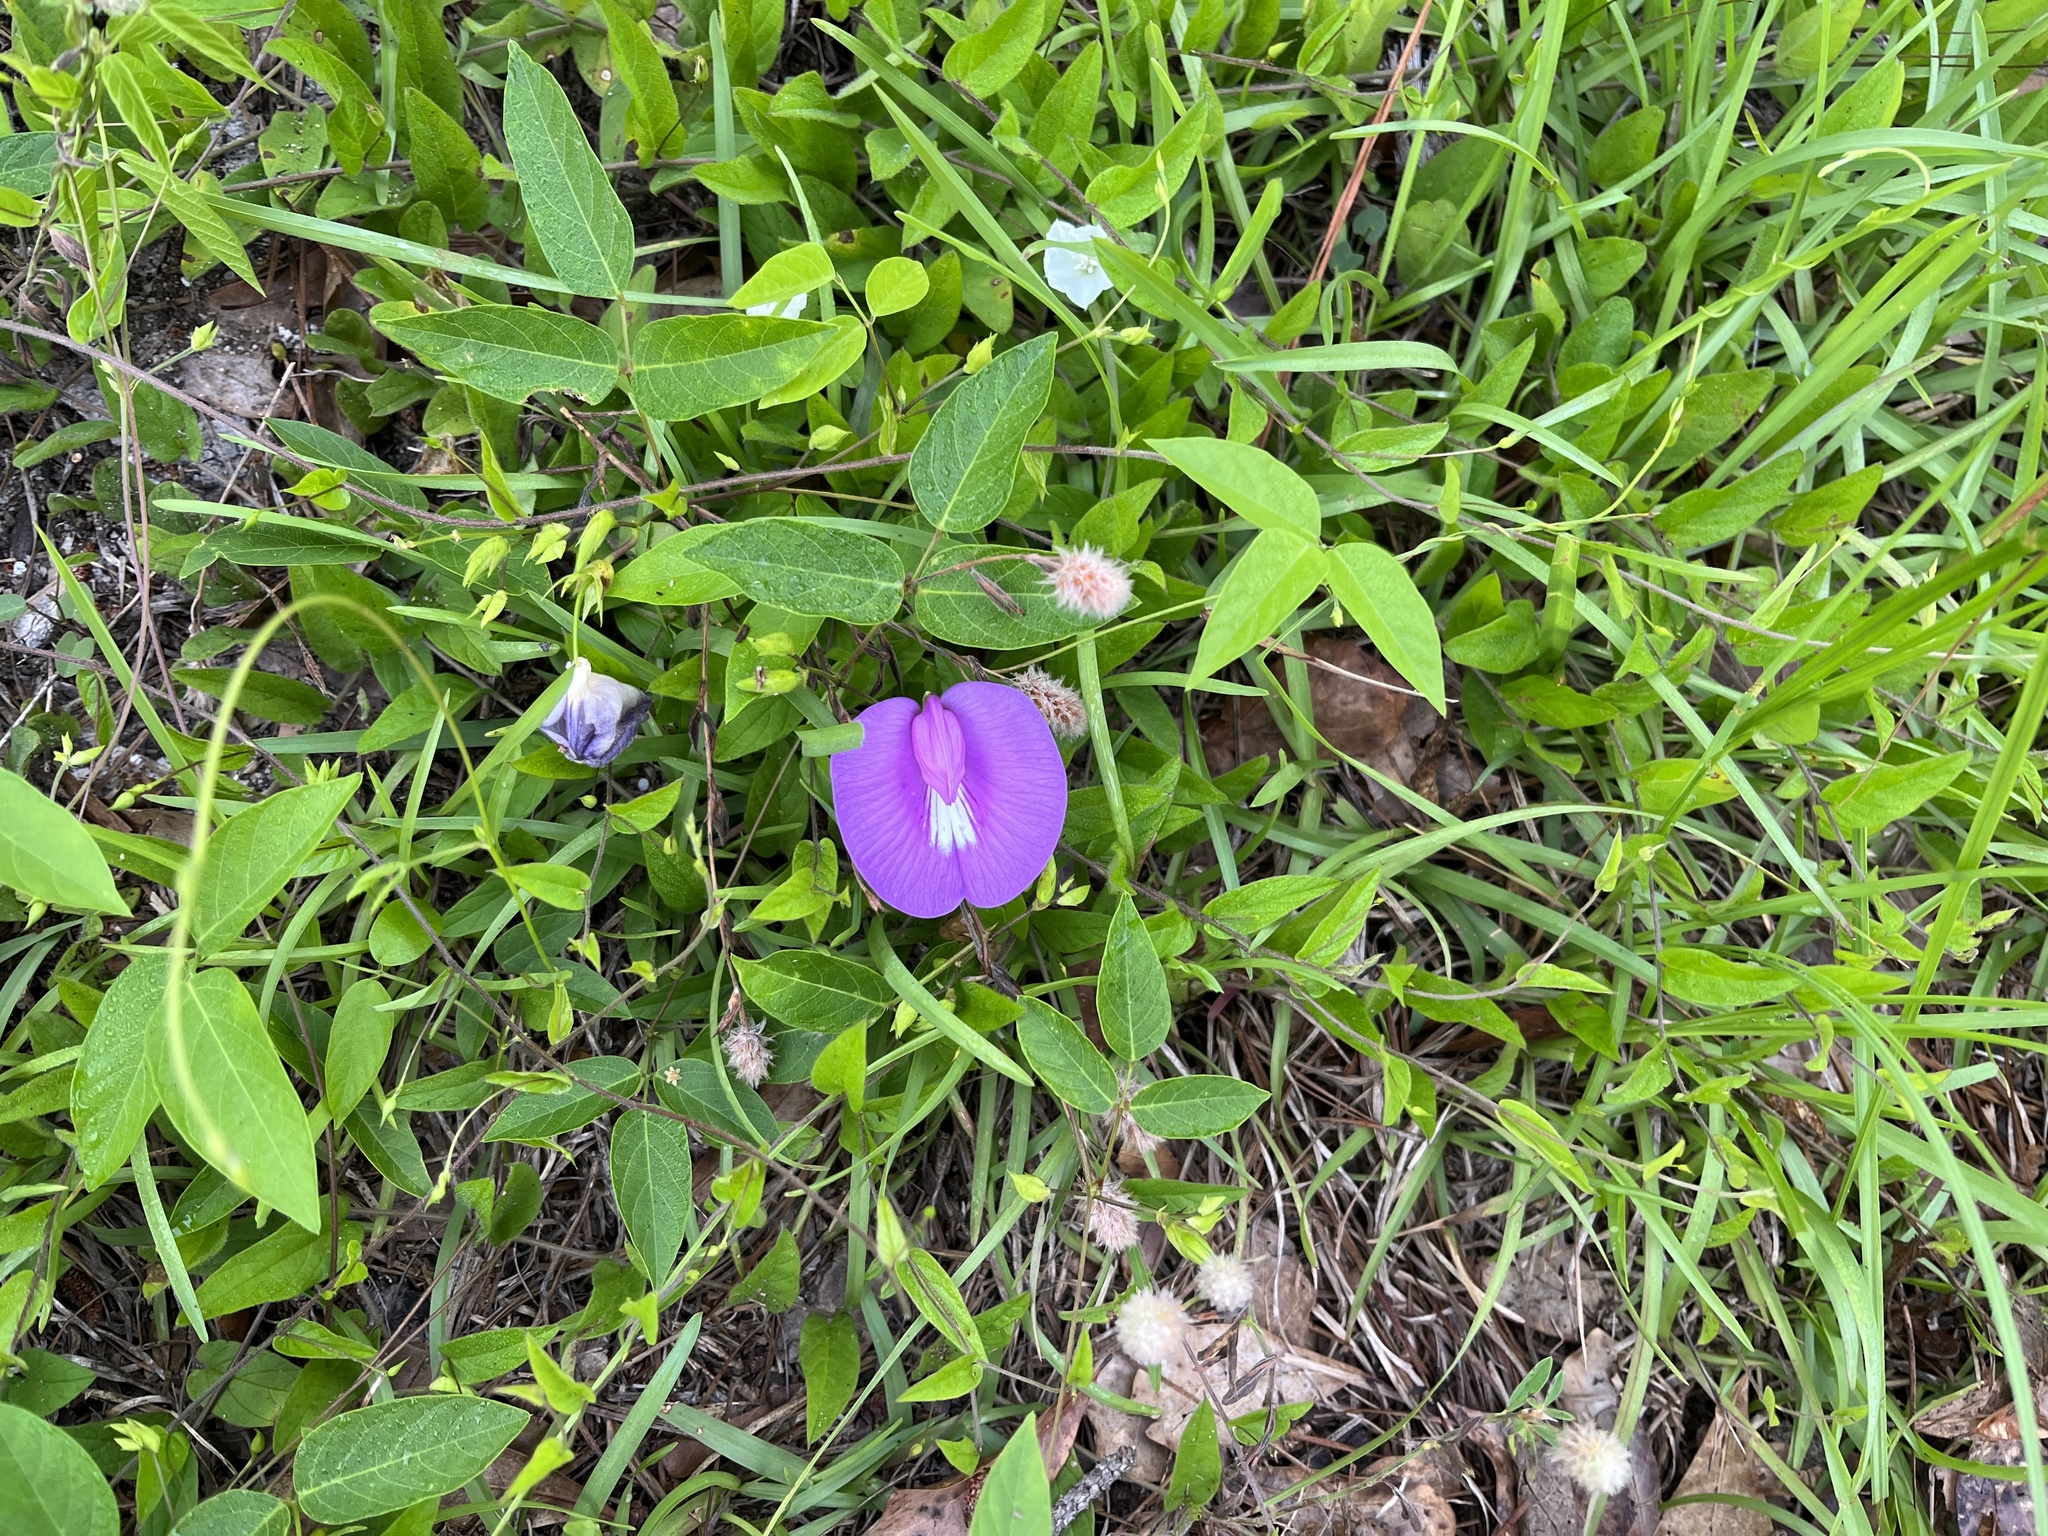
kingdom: Plantae
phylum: Tracheophyta
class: Magnoliopsida
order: Fabales
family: Fabaceae
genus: Centrosema
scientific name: Centrosema virginianum
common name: Butterfly-pea
